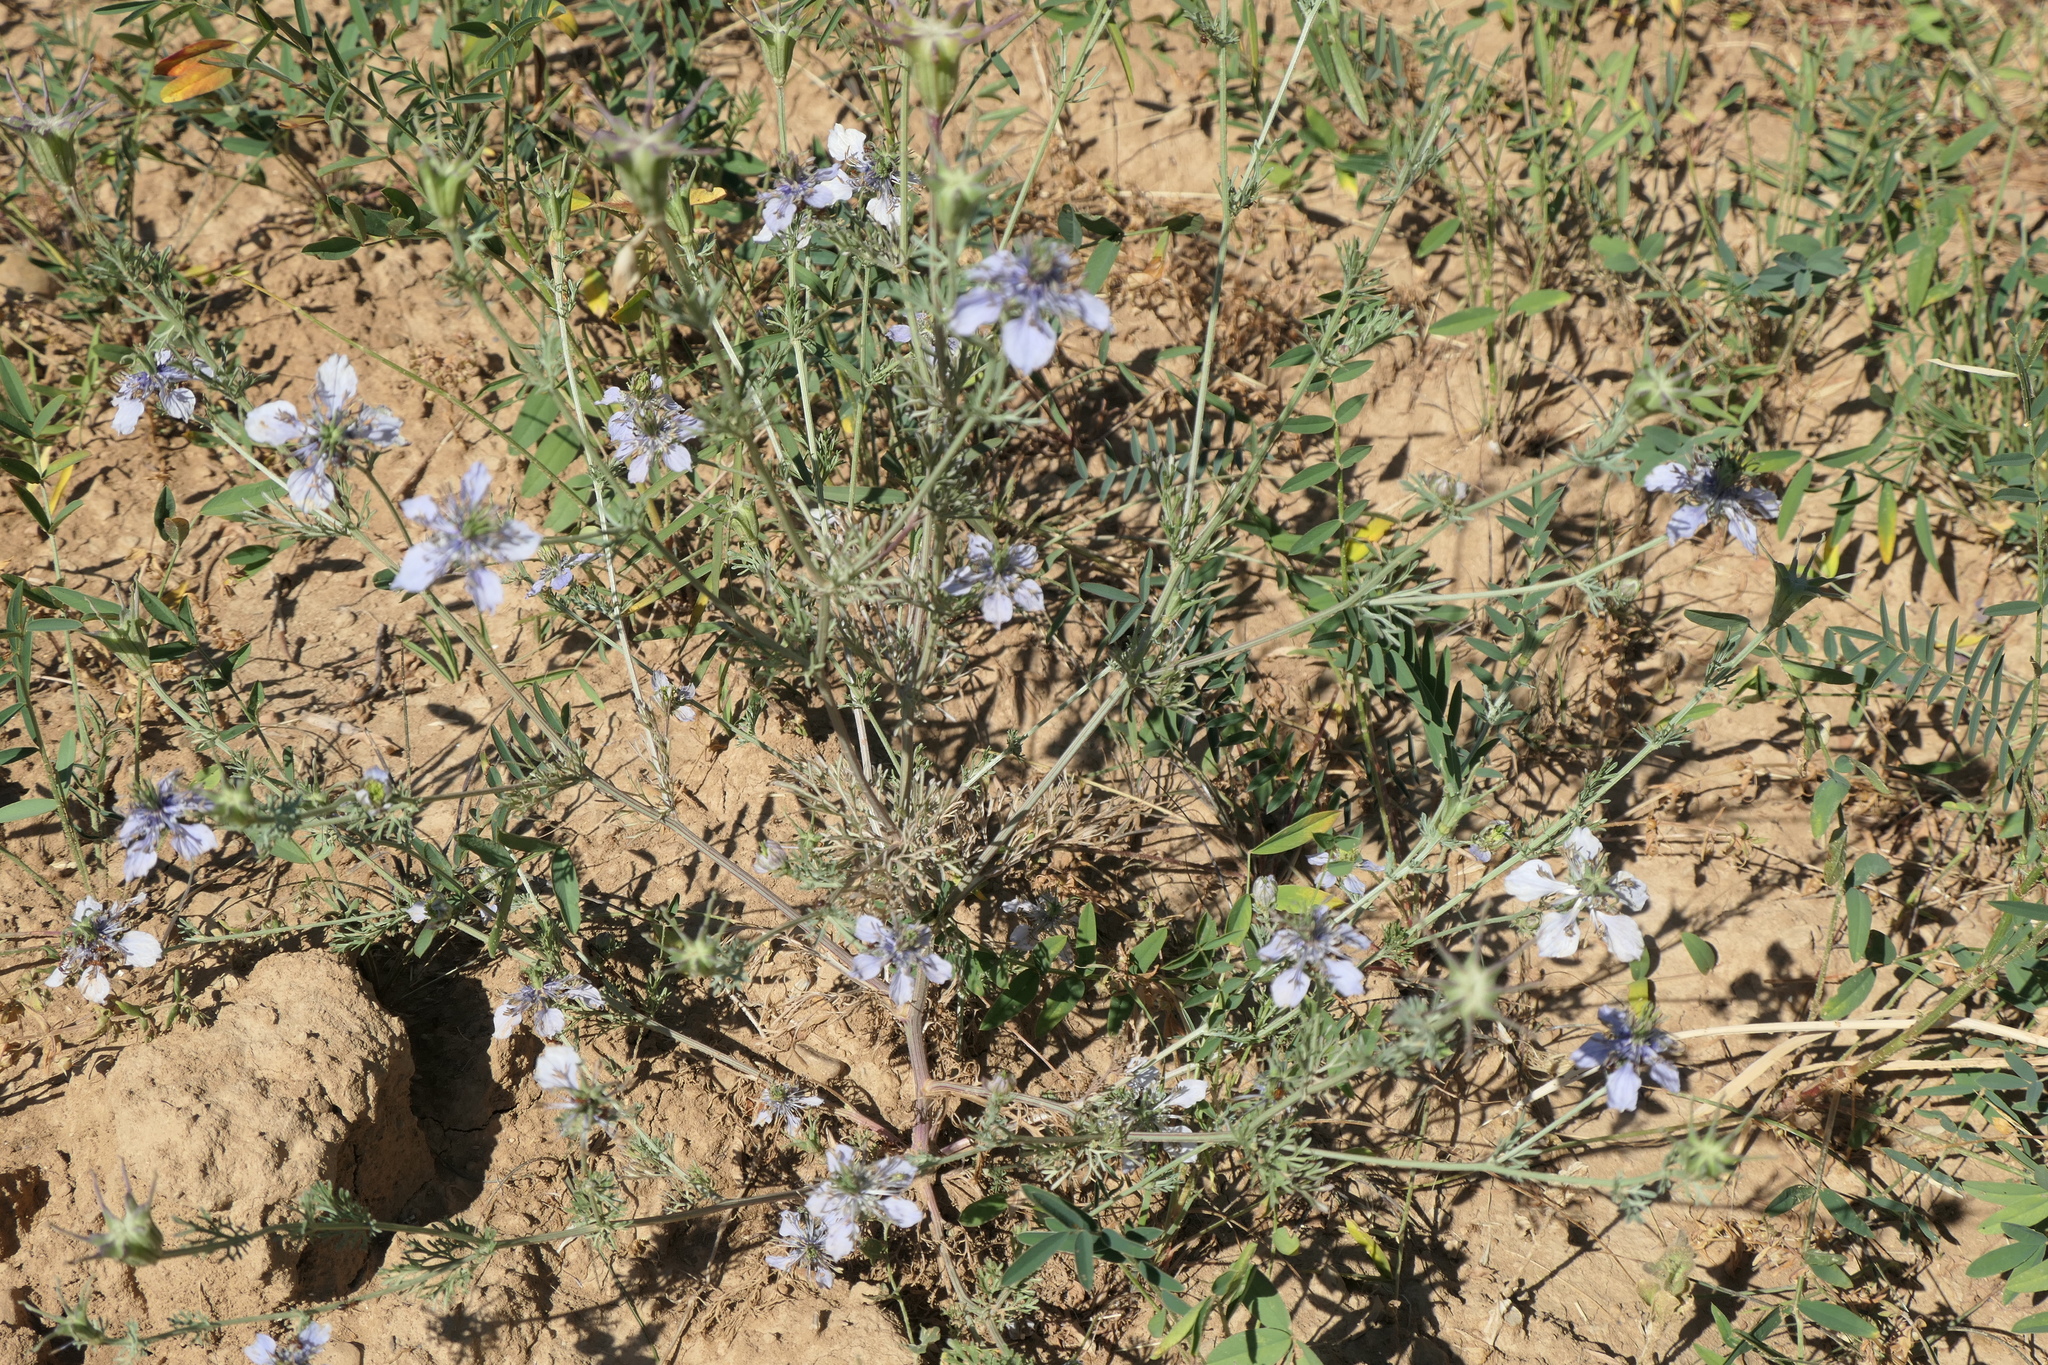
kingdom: Plantae
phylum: Tracheophyta
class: Magnoliopsida
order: Ranunculales
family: Ranunculaceae
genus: Nigella
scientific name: Nigella gallica
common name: Pale fennel-flower
